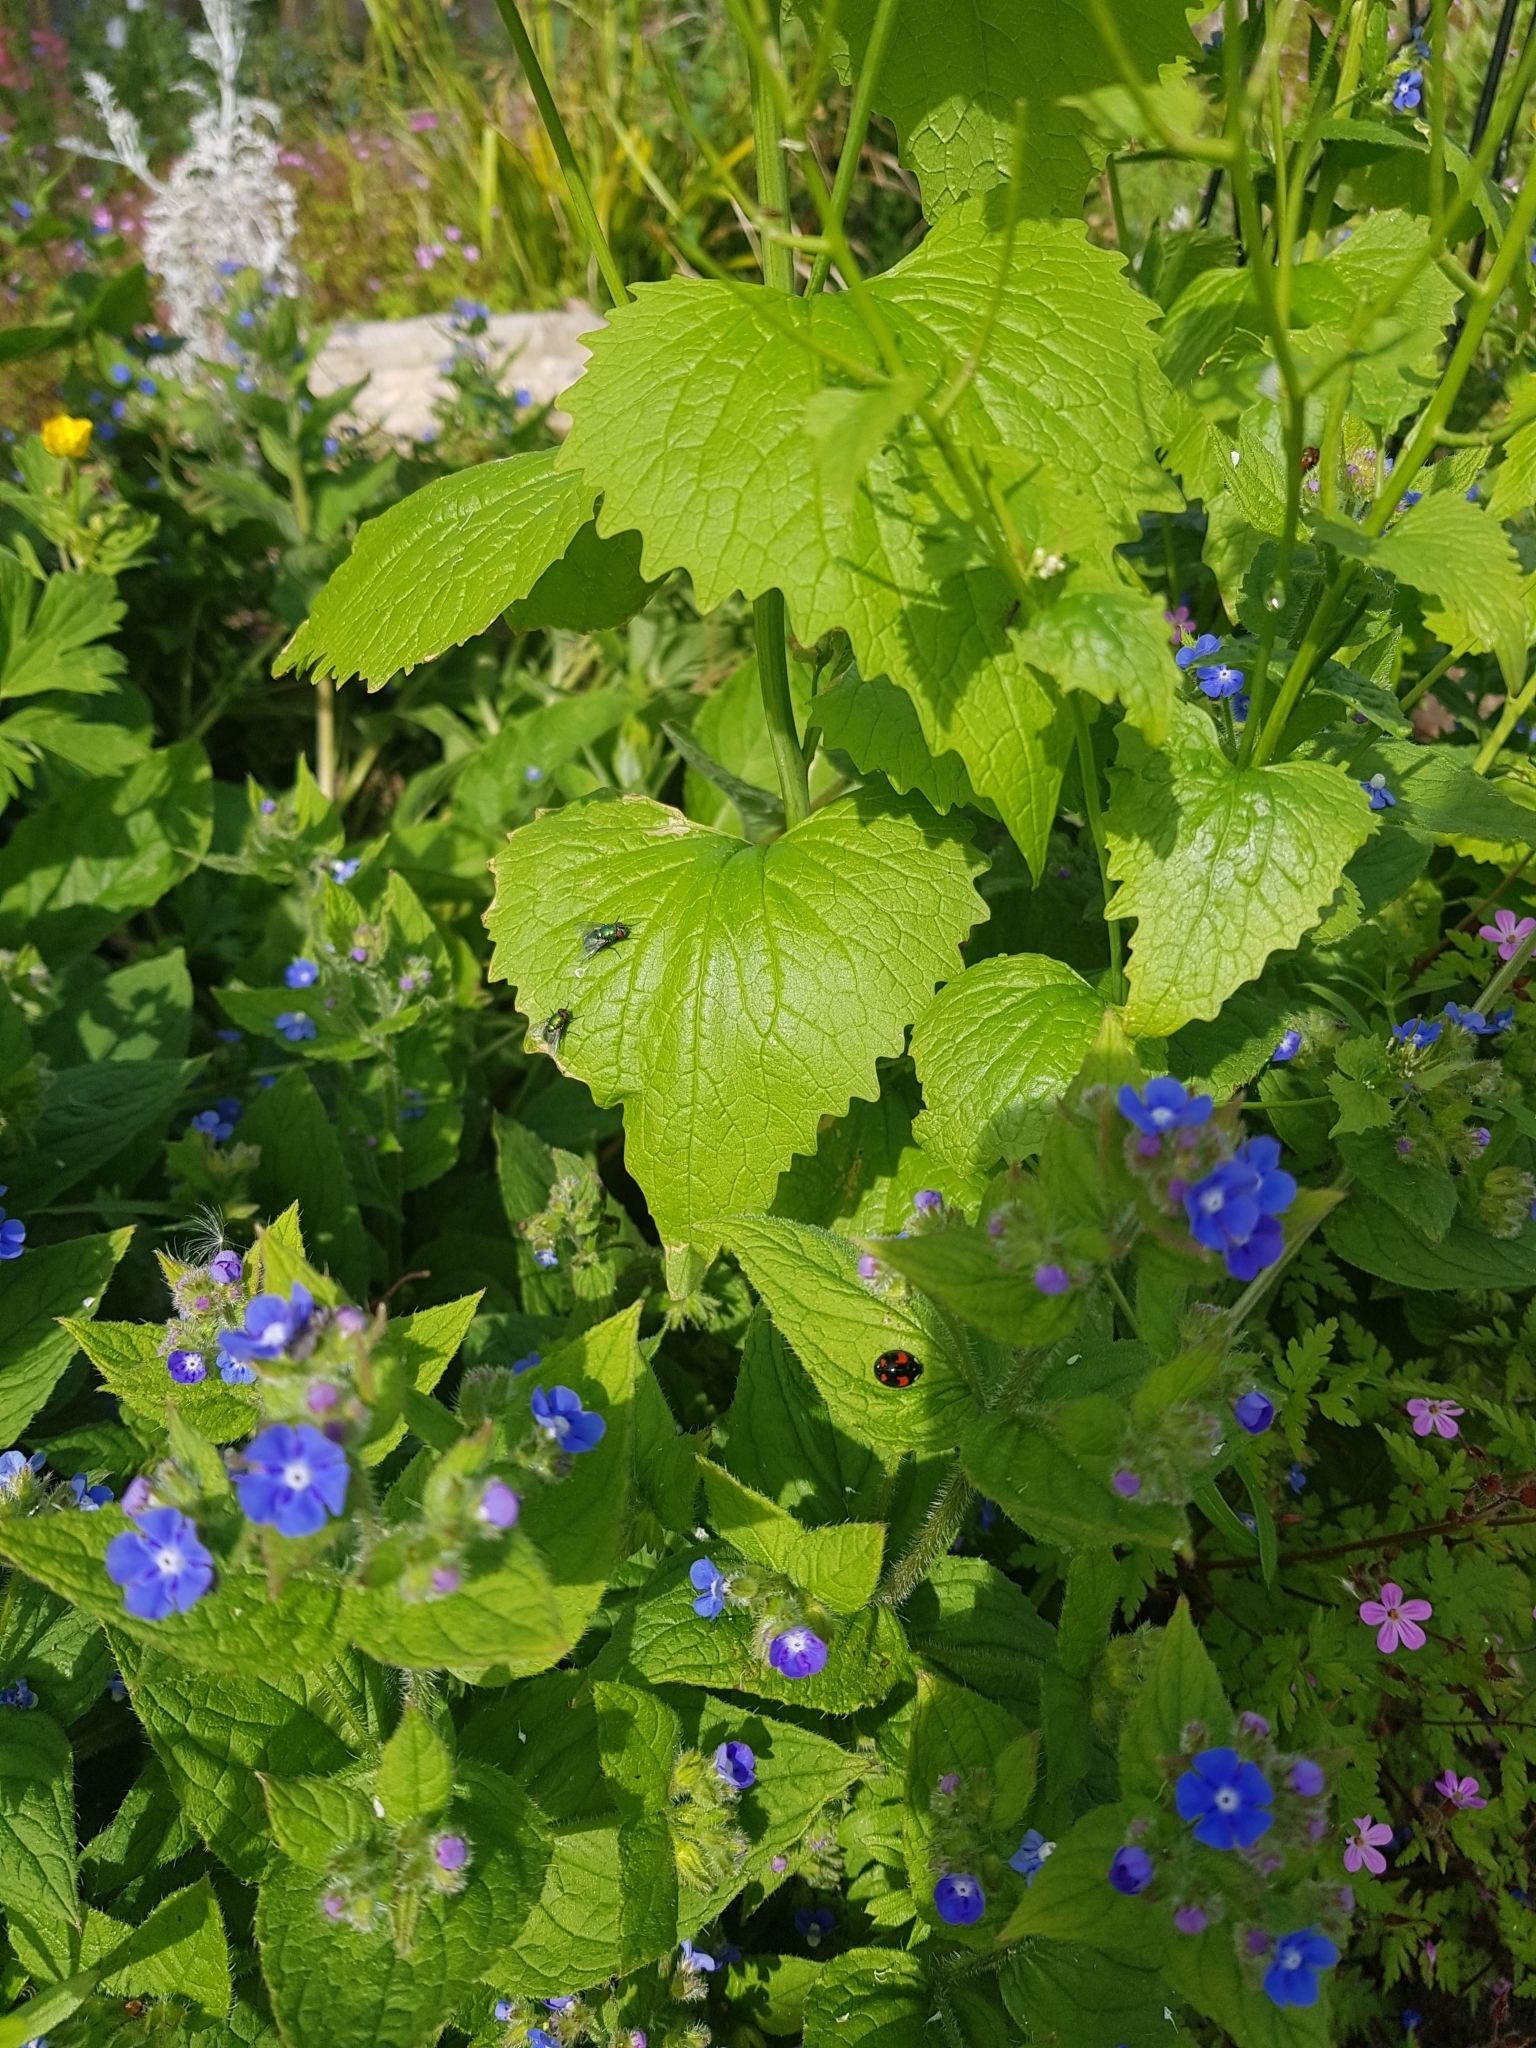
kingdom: Animalia
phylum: Arthropoda
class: Insecta
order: Coleoptera
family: Coccinellidae
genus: Harmonia
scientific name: Harmonia axyridis
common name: Harlequin ladybird
